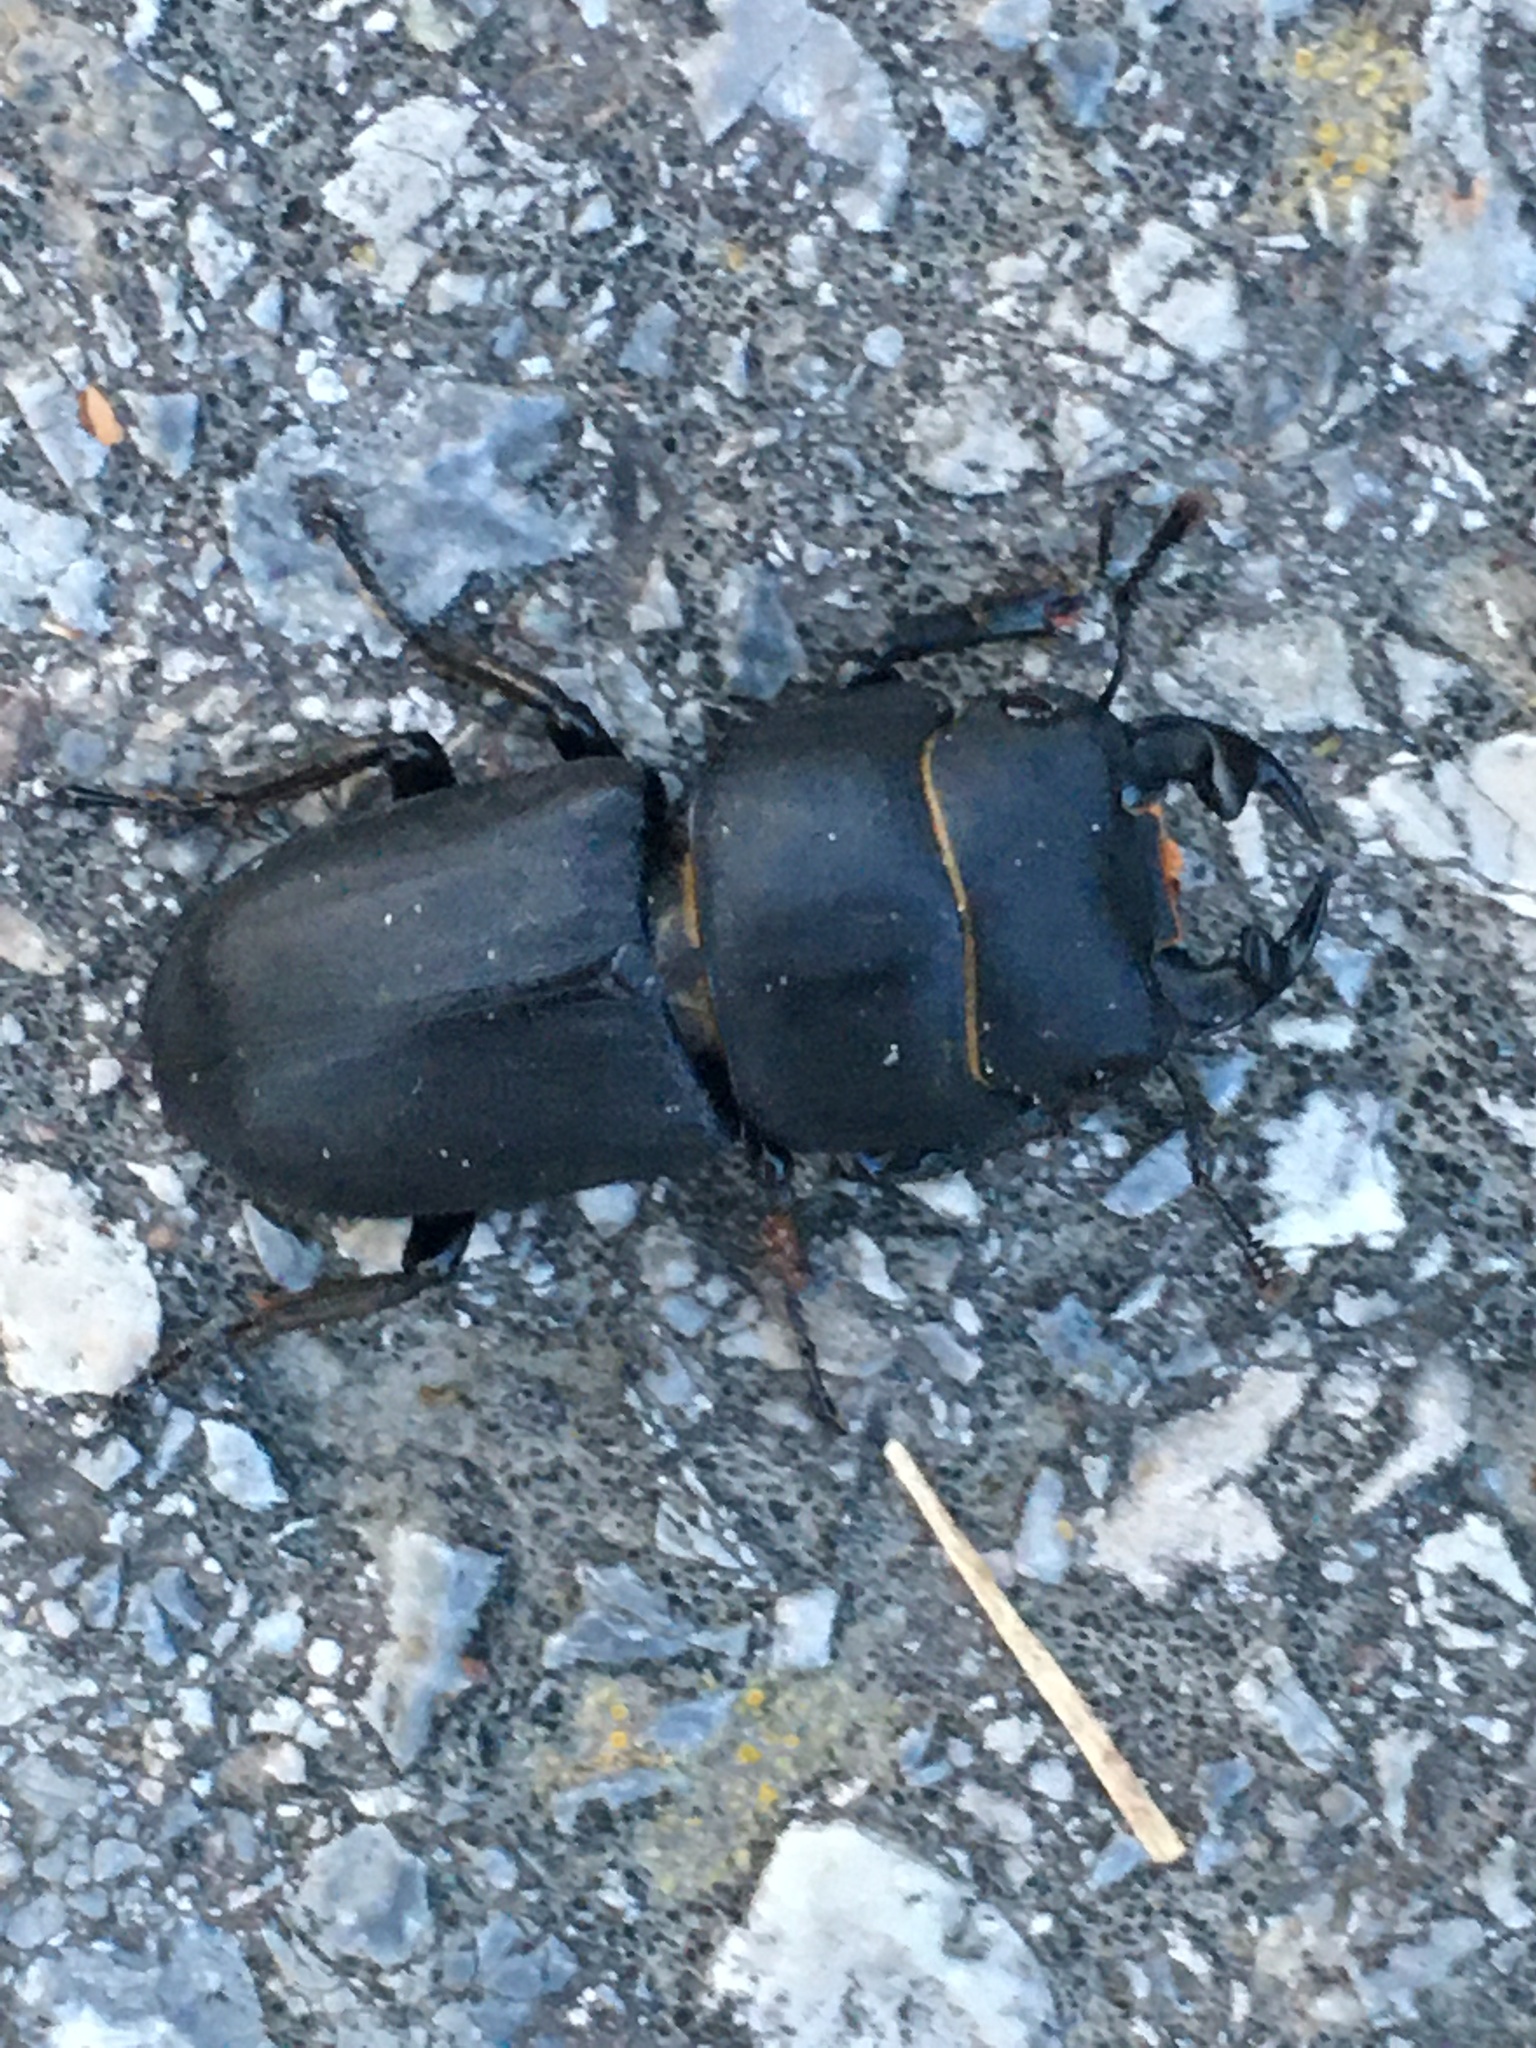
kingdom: Animalia
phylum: Arthropoda
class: Insecta
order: Coleoptera
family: Lucanidae
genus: Dorcus
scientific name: Dorcus parallelipipedus
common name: Lesser stag beetle
